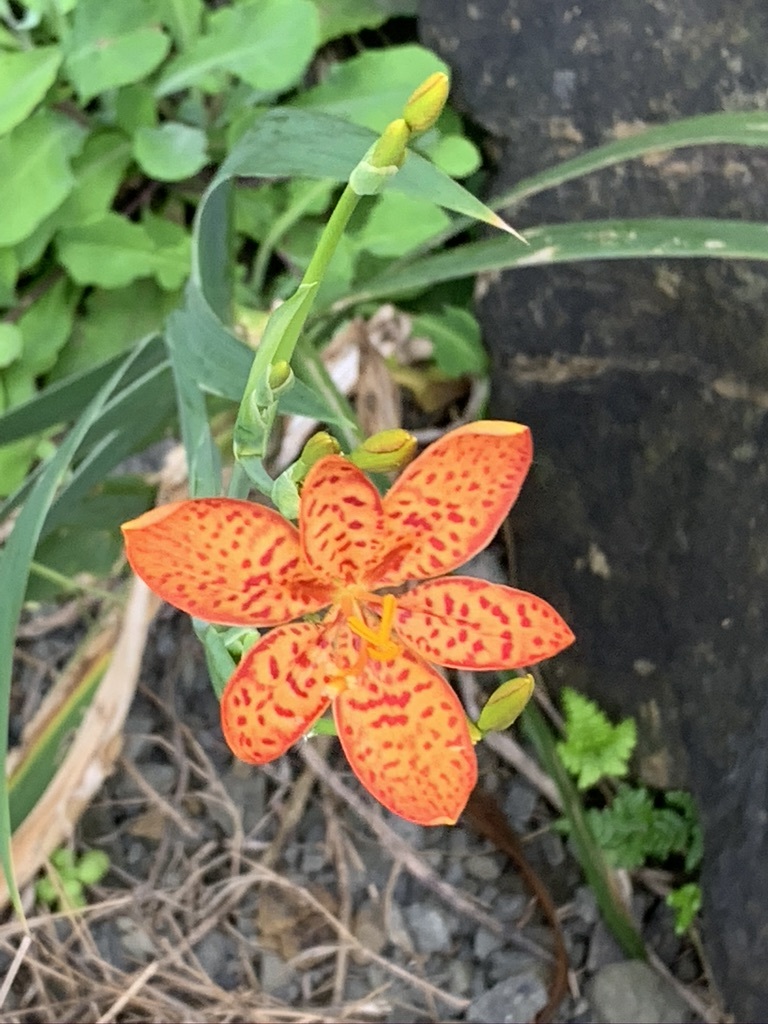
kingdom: Plantae
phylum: Tracheophyta
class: Liliopsida
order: Asparagales
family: Iridaceae
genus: Iris
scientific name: Iris domestica
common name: Belamcanda
